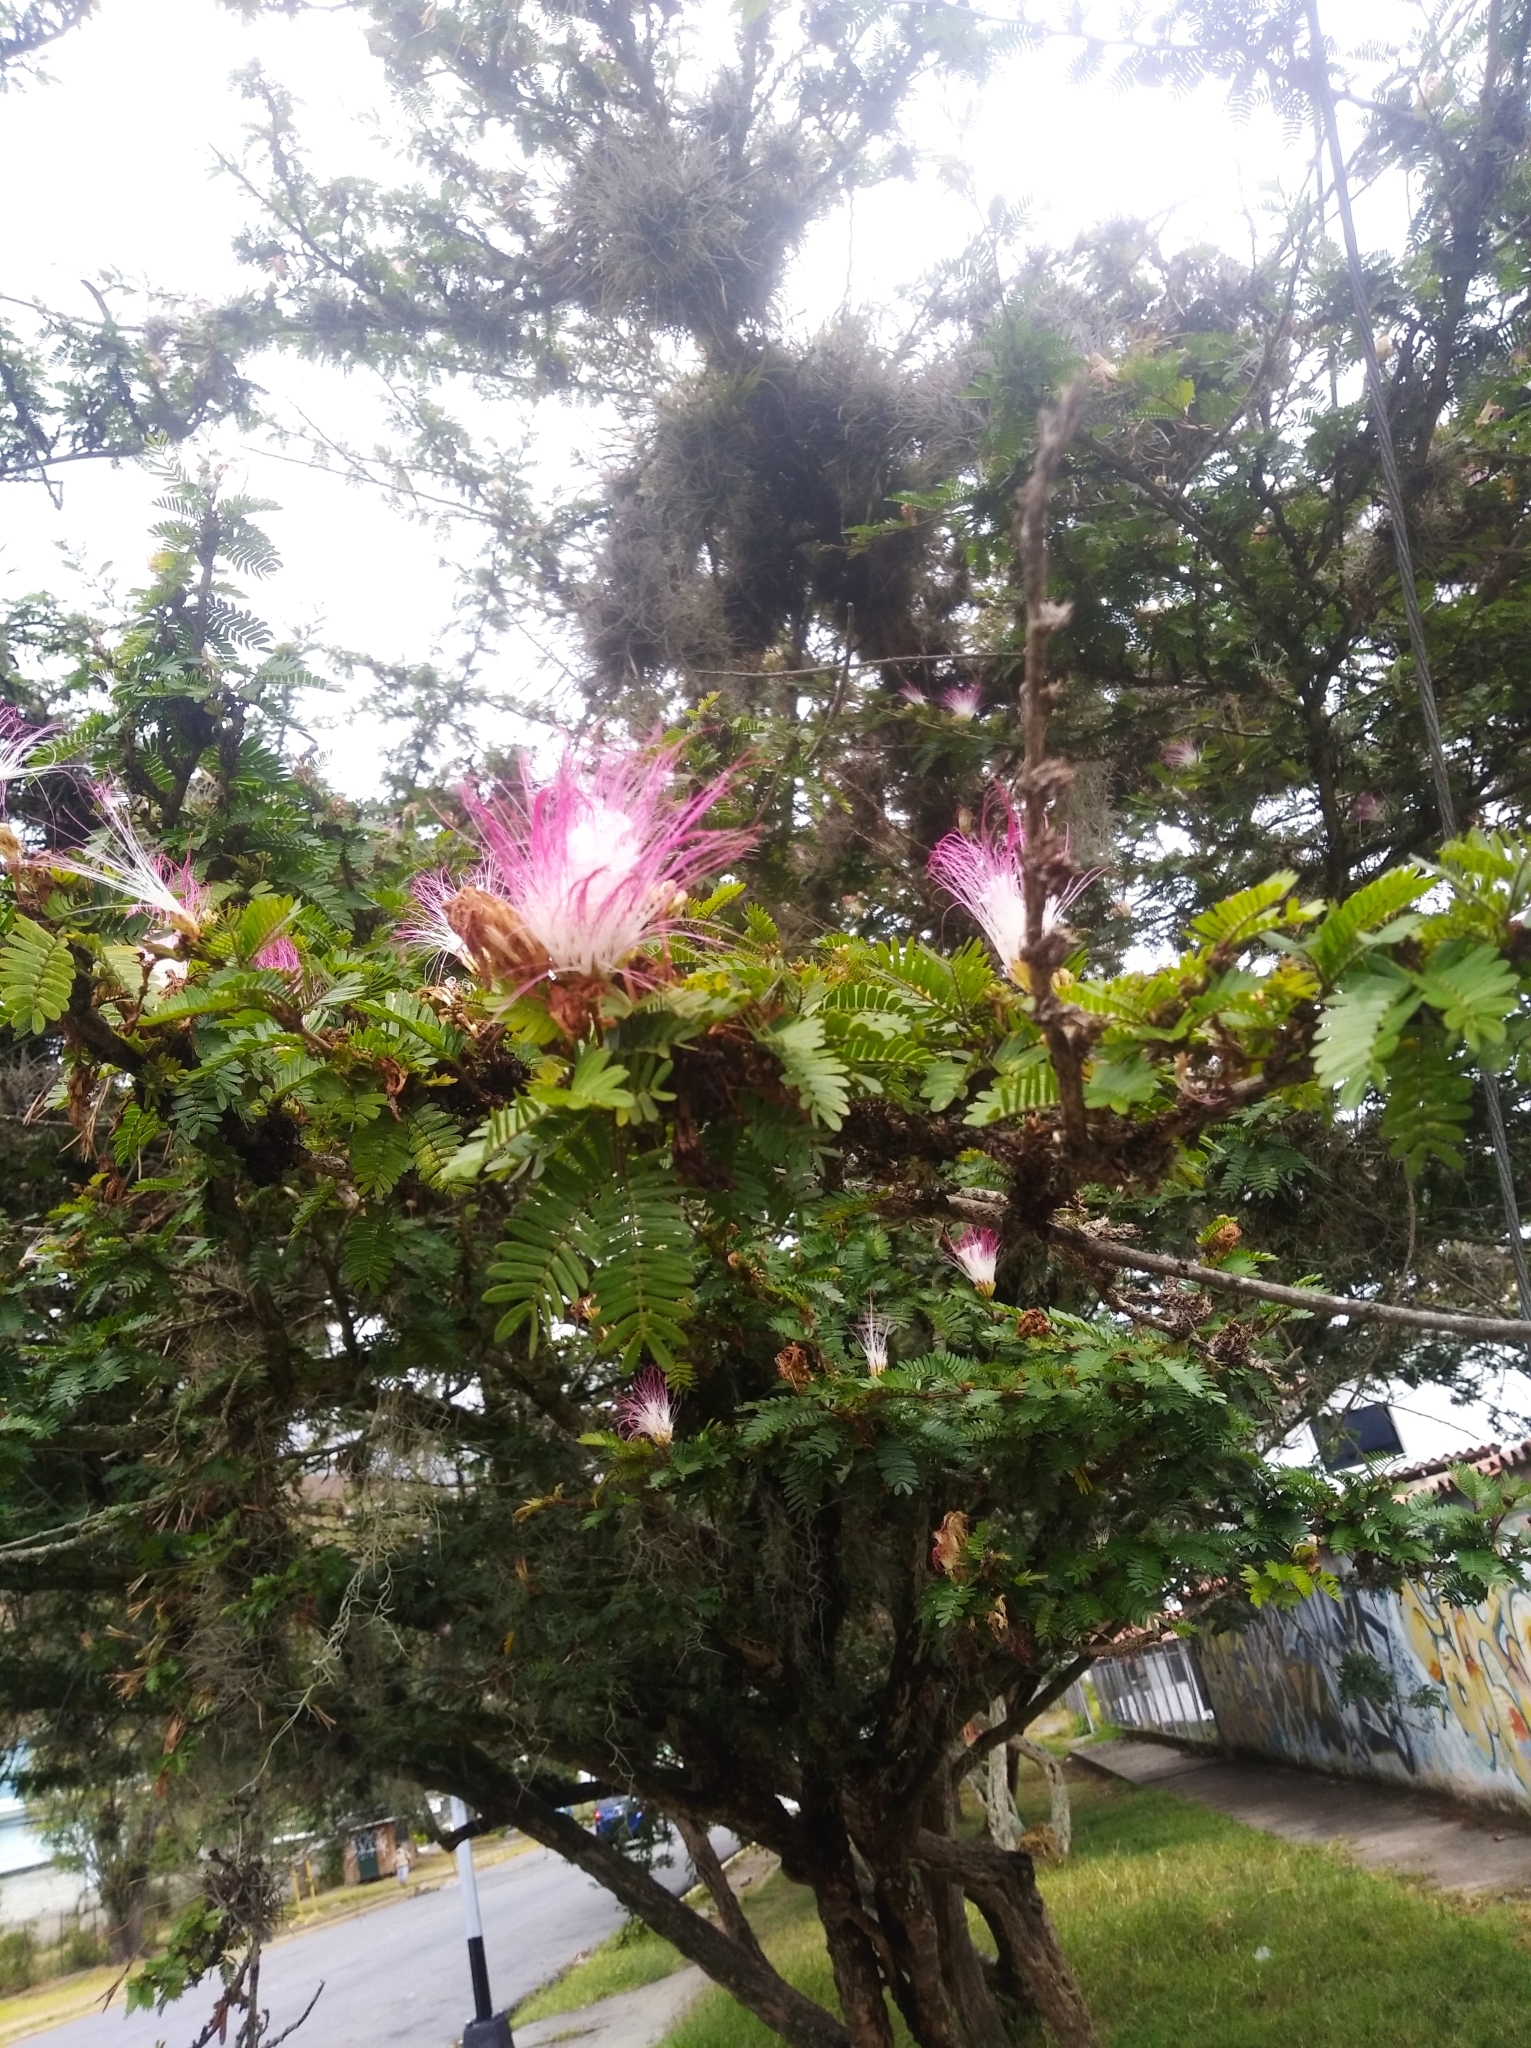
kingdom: Plantae
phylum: Tracheophyta
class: Magnoliopsida
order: Fabales
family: Fabaceae
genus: Samanea
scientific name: Samanea saman
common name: Raintree
